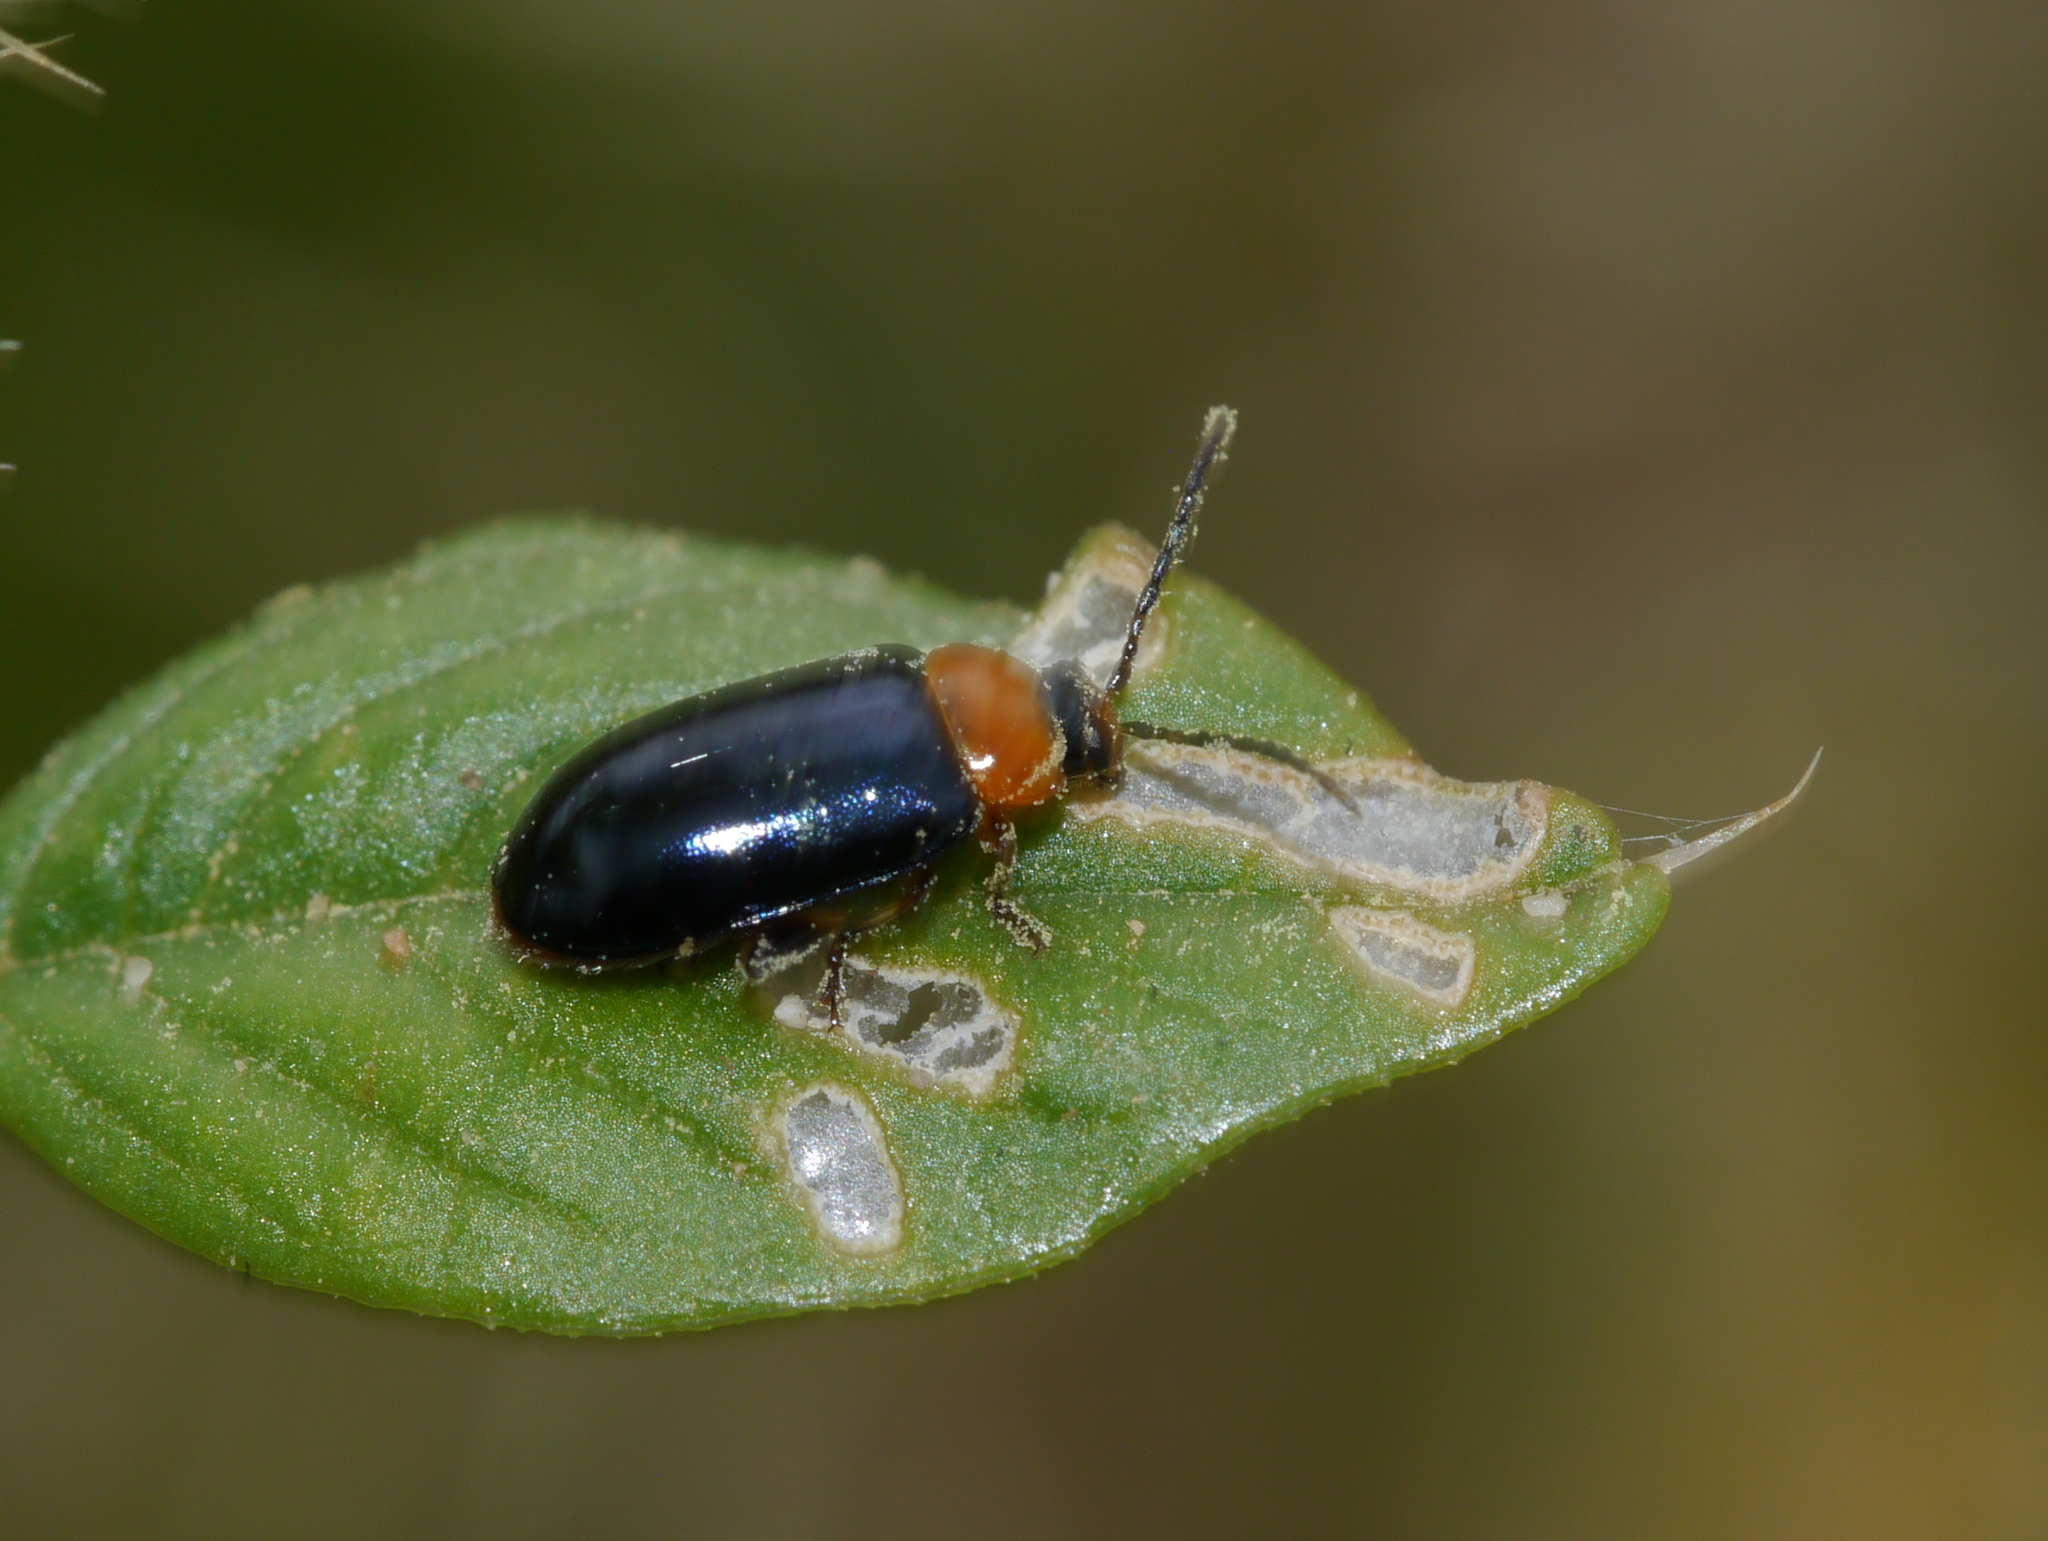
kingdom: Animalia
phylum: Arthropoda
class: Insecta
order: Coleoptera
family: Chrysomelidae
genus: Disonycha
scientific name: Disonycha politula
